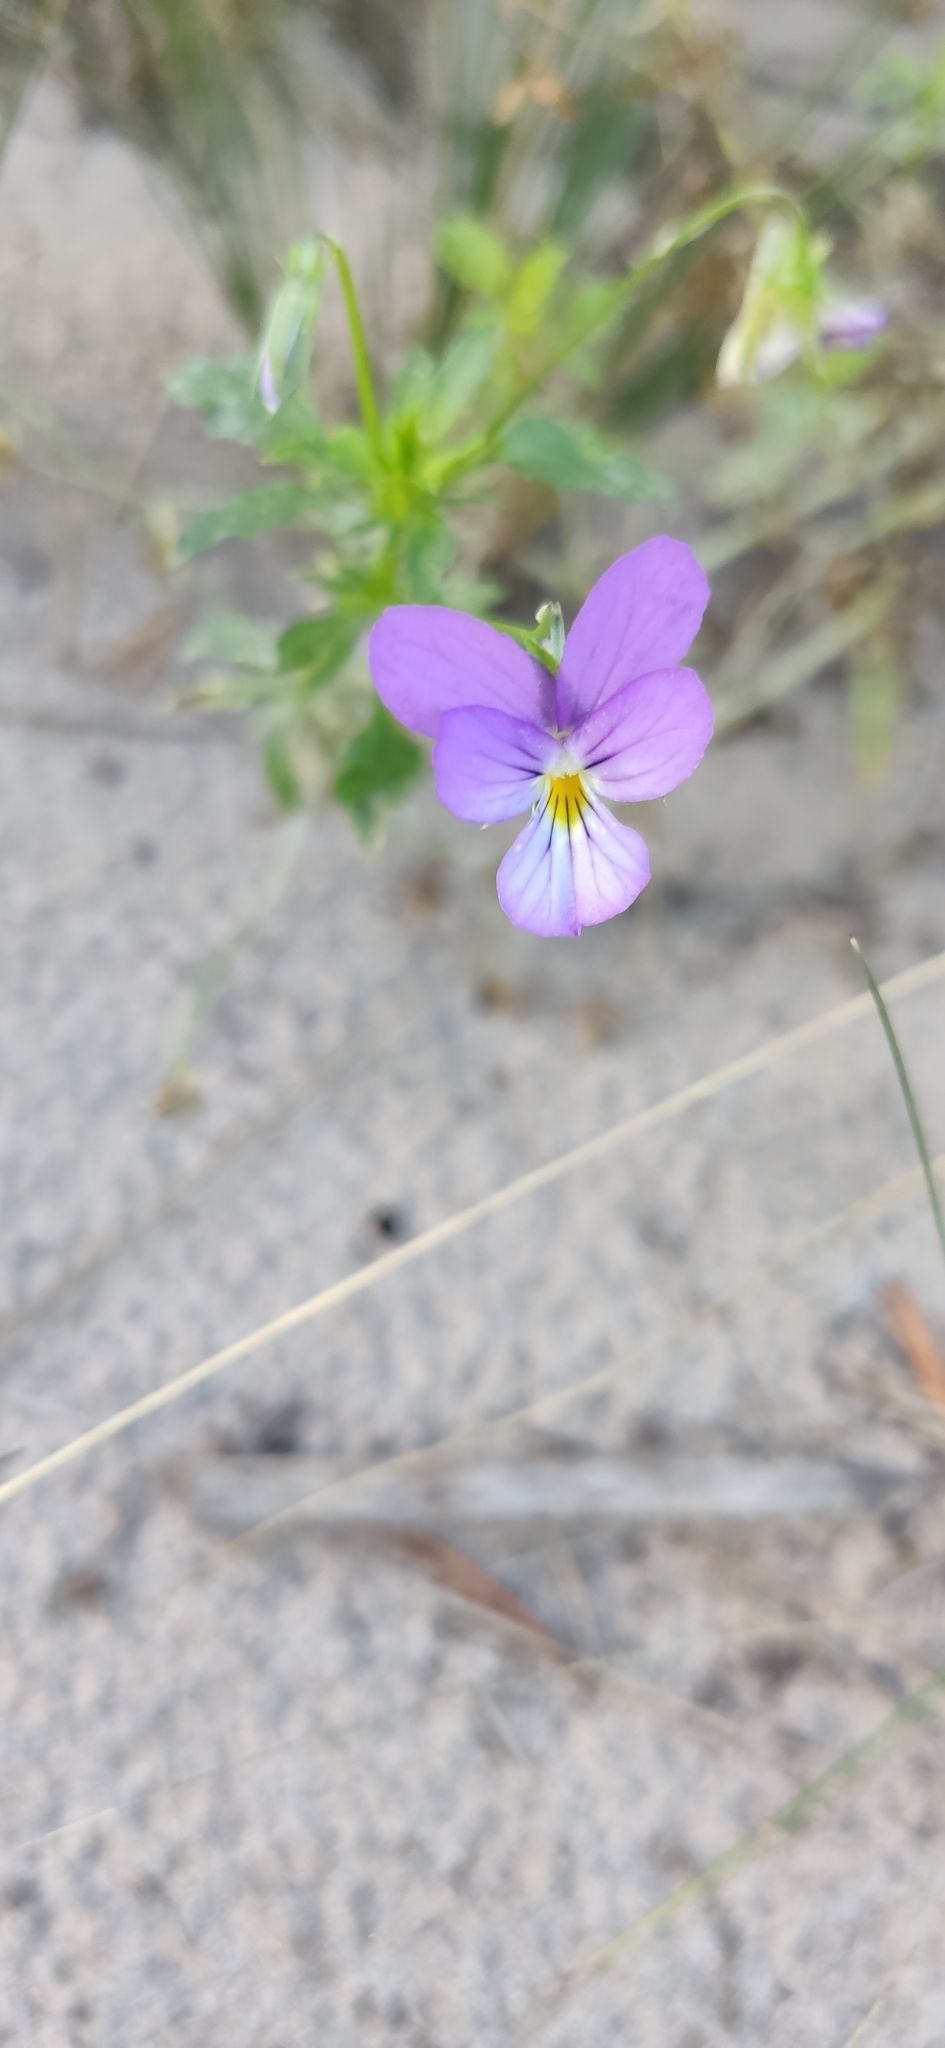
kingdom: Plantae
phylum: Tracheophyta
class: Magnoliopsida
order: Malpighiales
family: Violaceae
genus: Viola
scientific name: Viola tricolor
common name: Pansy
